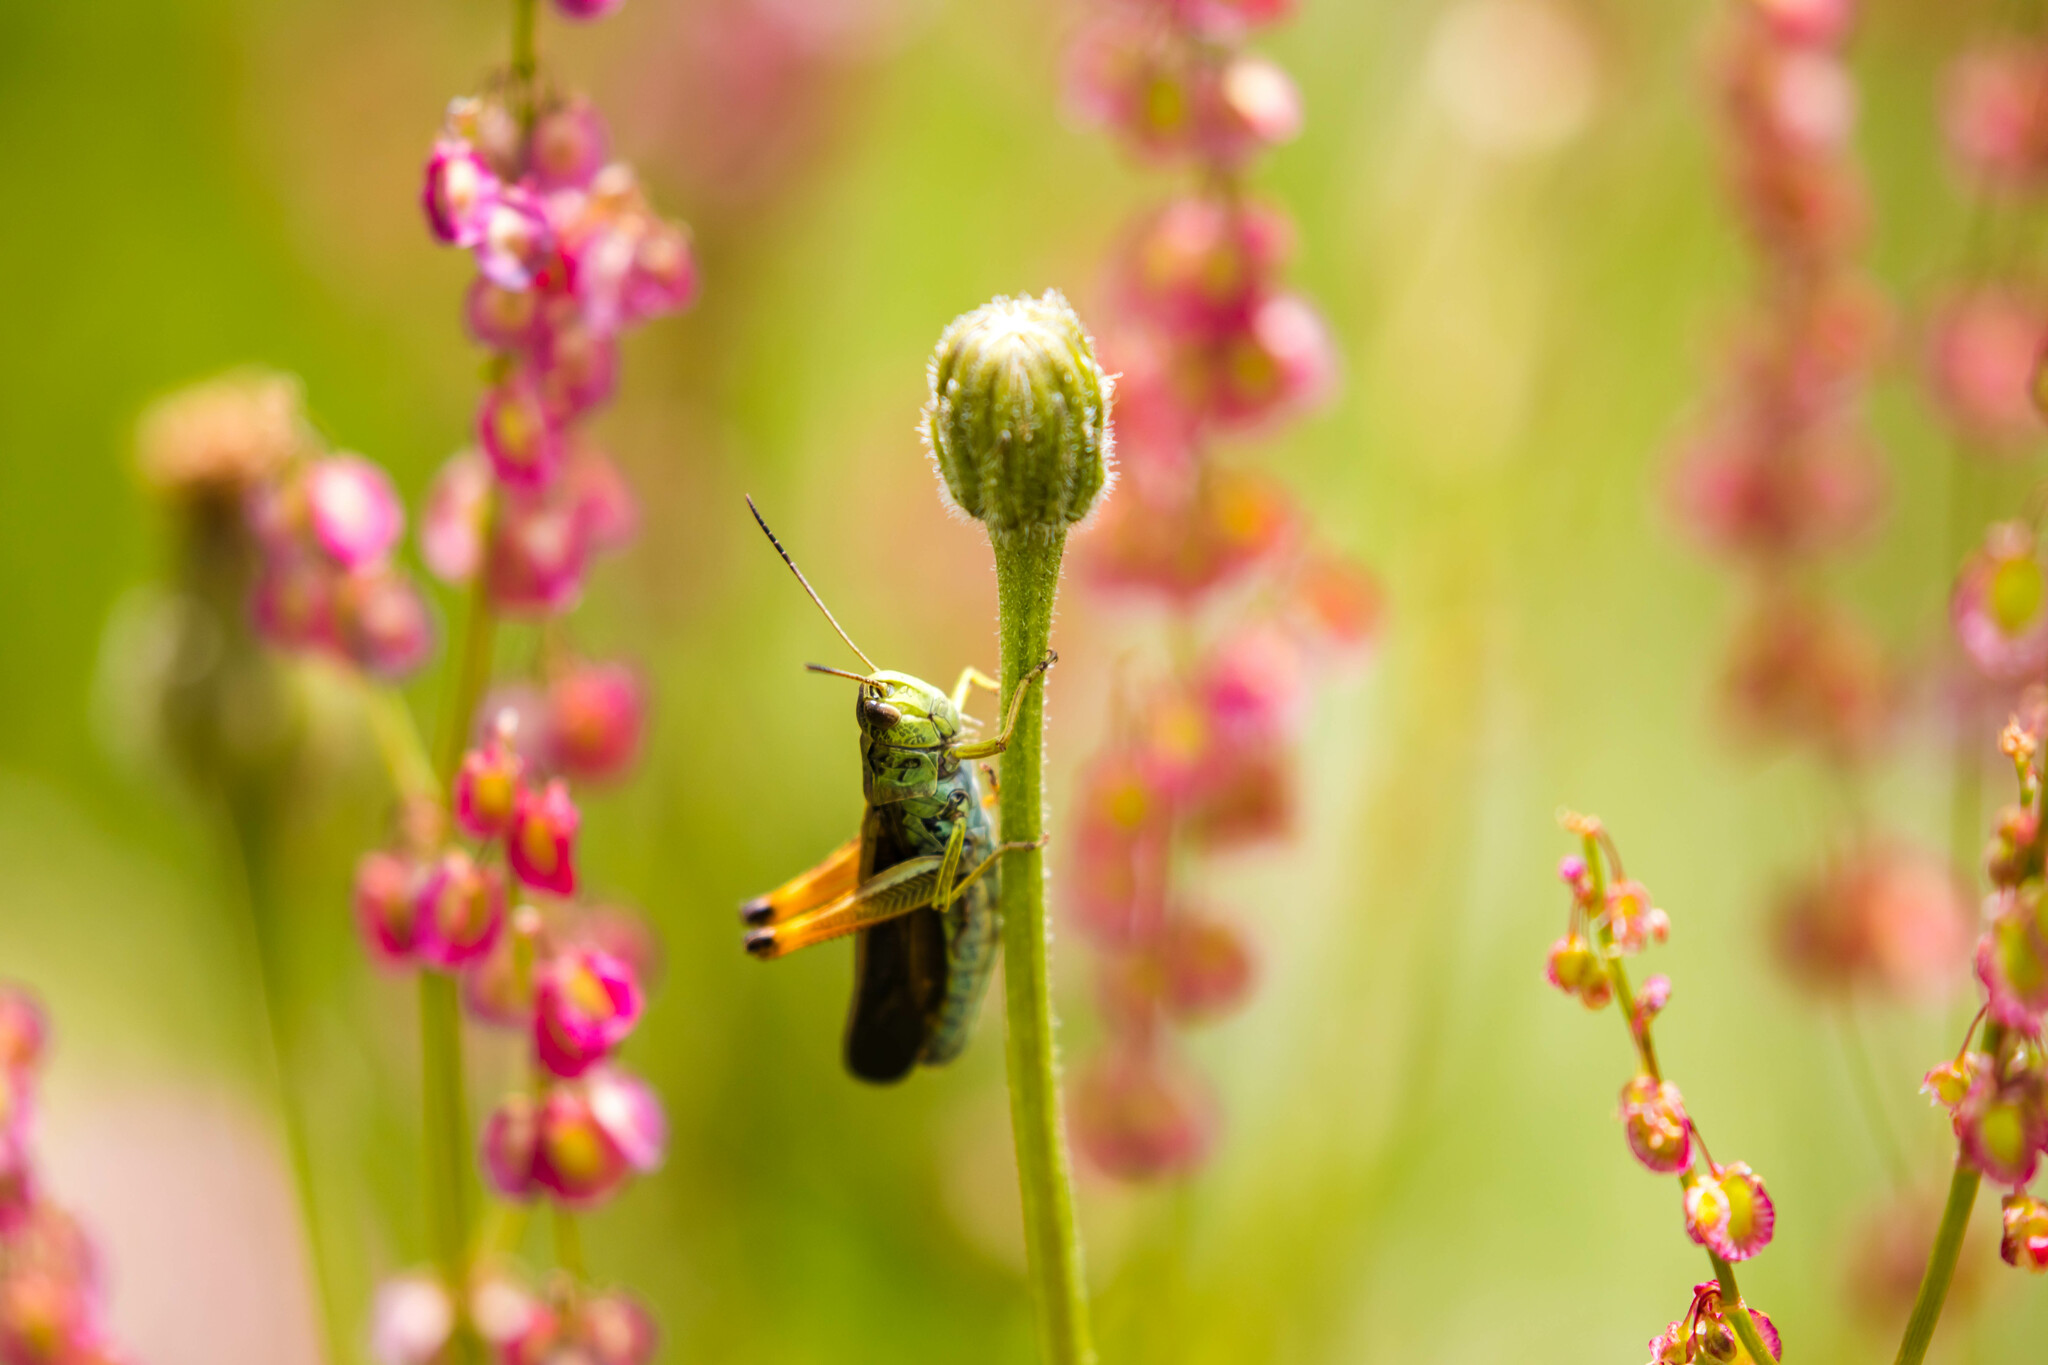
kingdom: Animalia
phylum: Arthropoda
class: Insecta
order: Orthoptera
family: Acrididae
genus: Stauroderus
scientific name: Stauroderus scalaris
